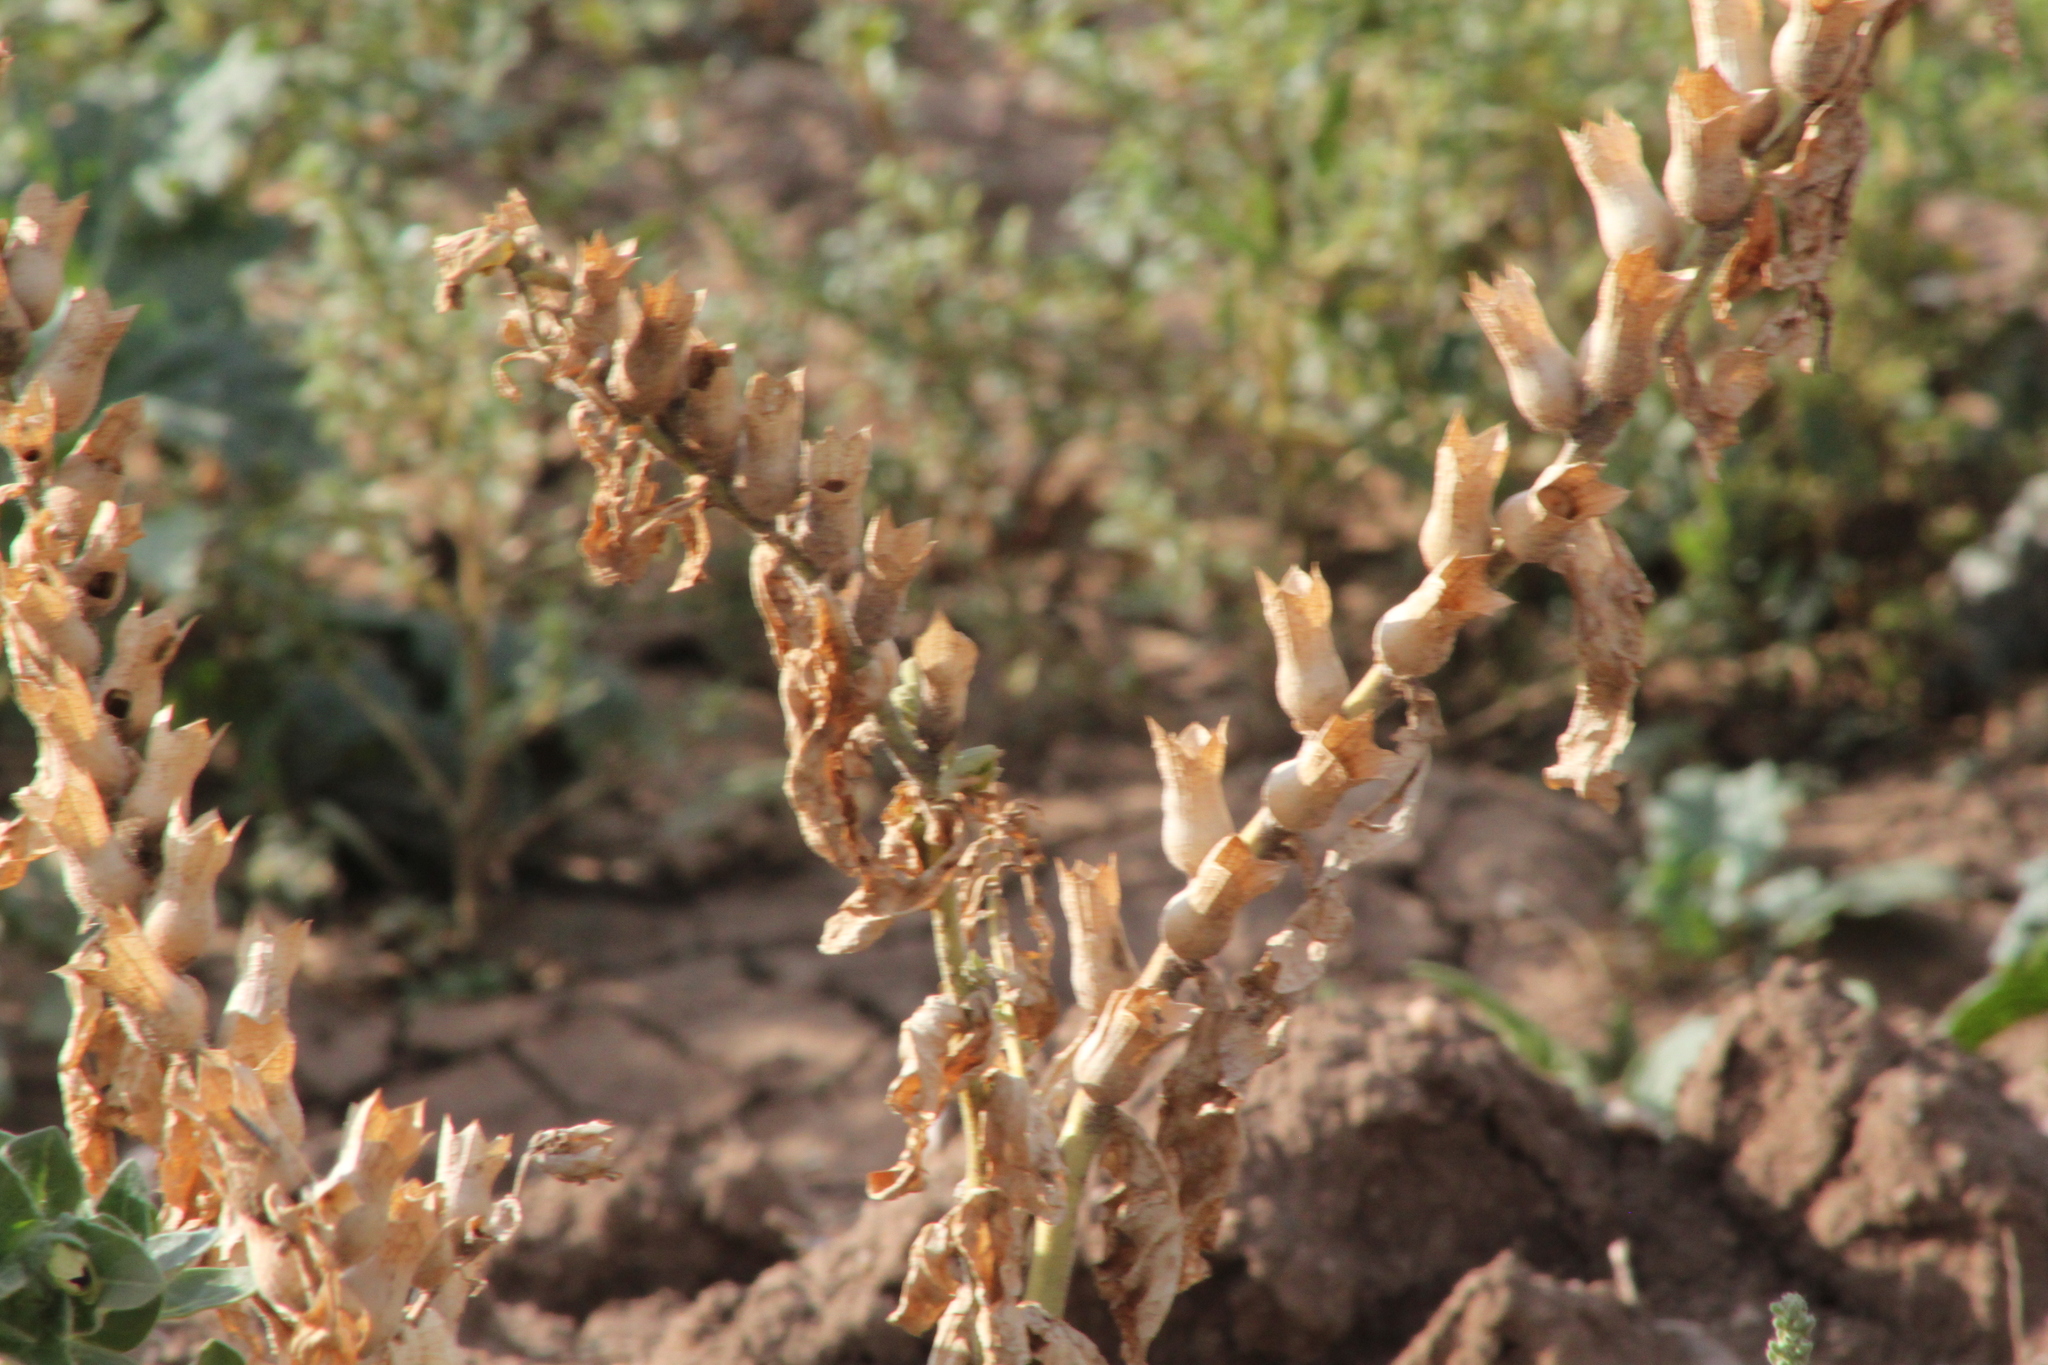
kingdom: Plantae
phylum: Tracheophyta
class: Magnoliopsida
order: Solanales
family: Solanaceae
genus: Hyoscyamus
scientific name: Hyoscyamus niger
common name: Henbane
